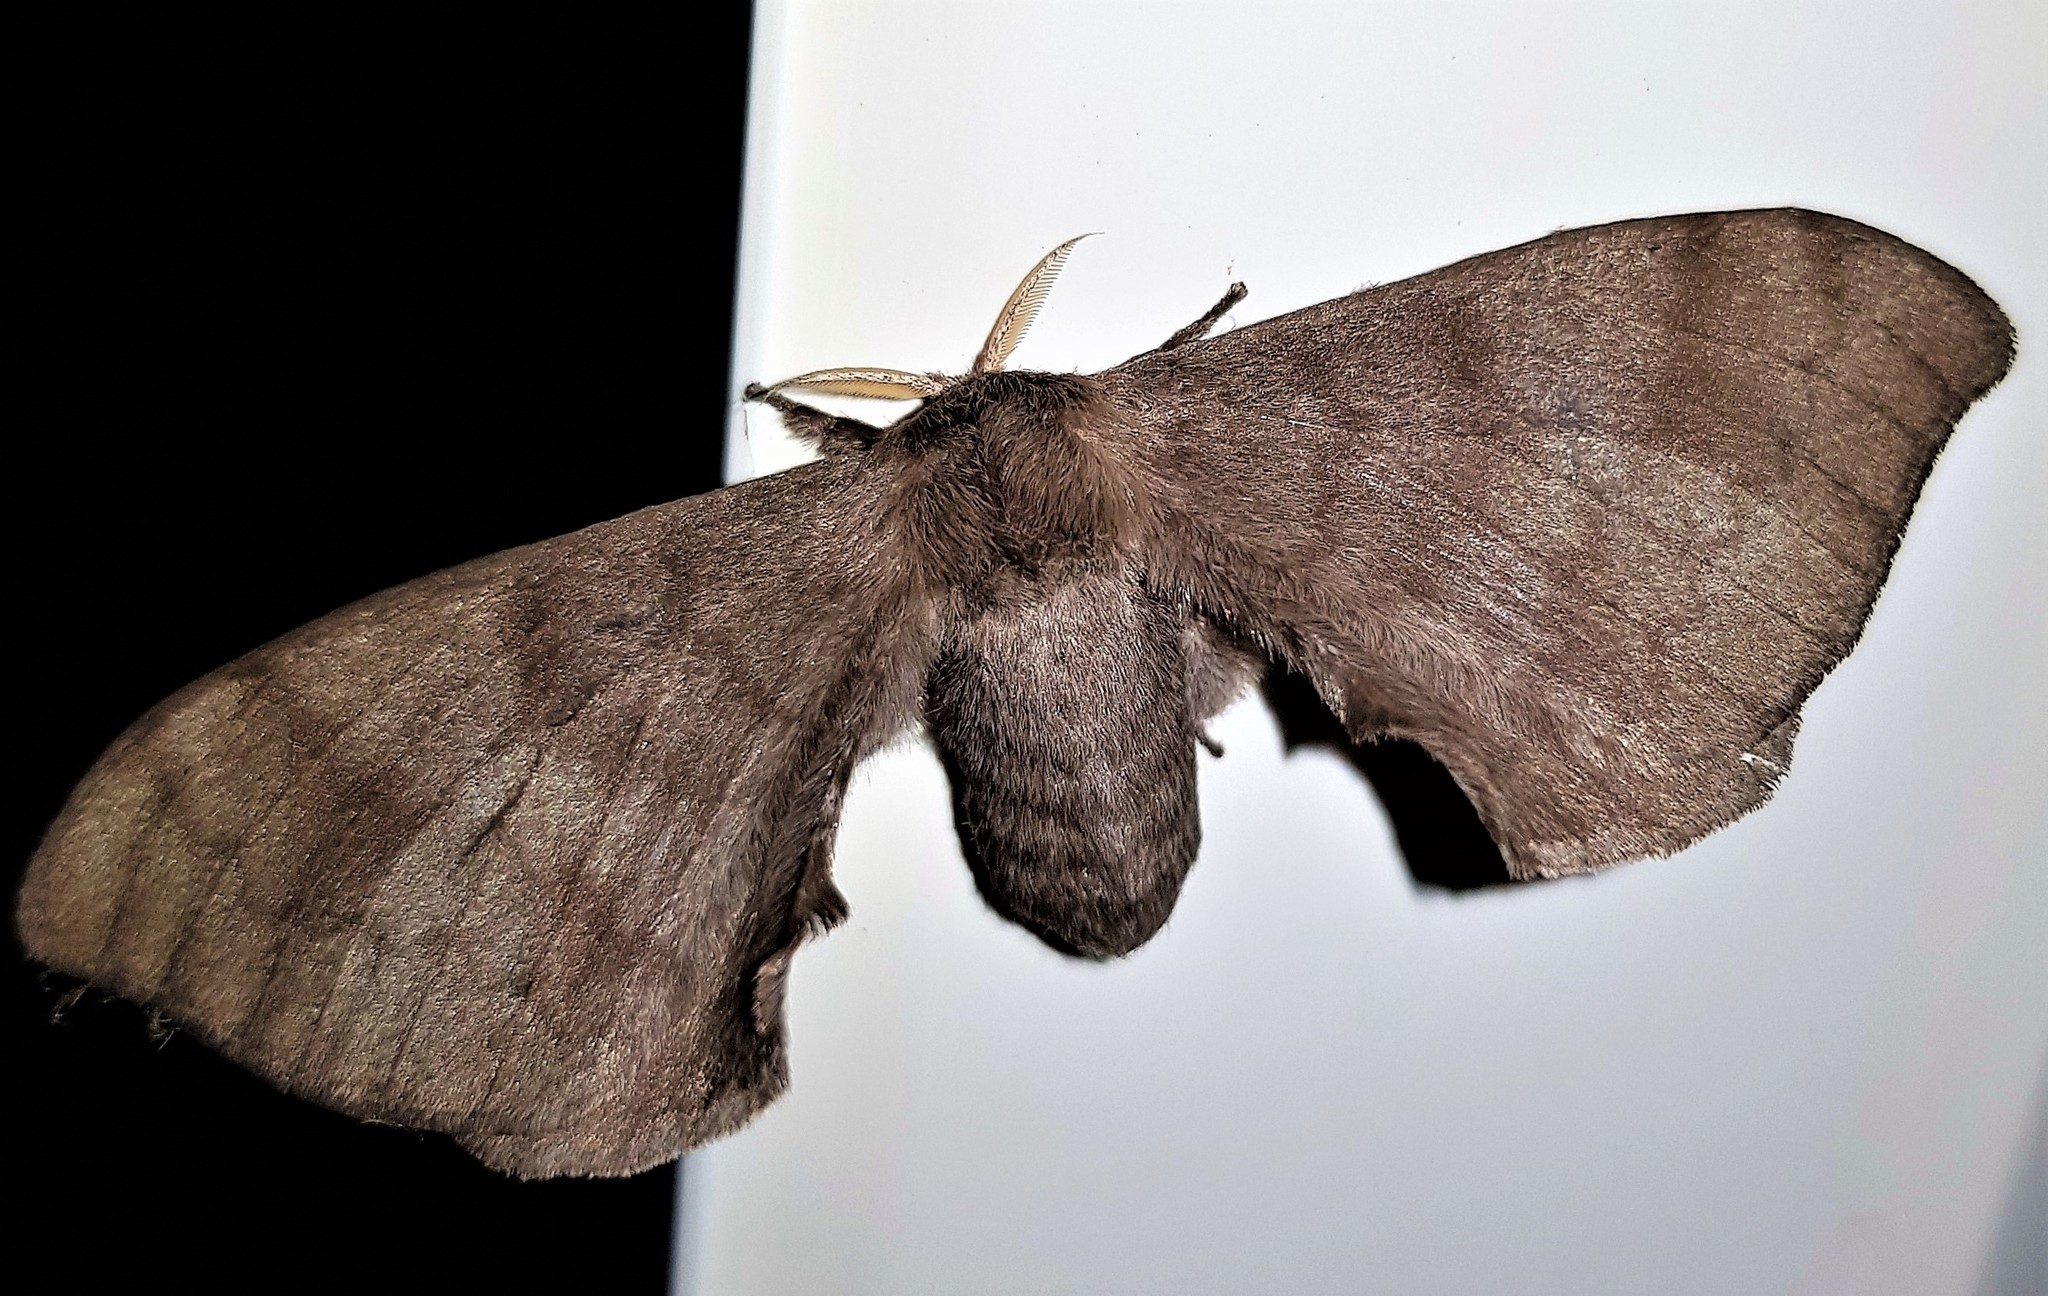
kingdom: Animalia
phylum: Arthropoda
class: Insecta
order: Lepidoptera
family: Bombycidae
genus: Epia
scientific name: Epia lunilinea
